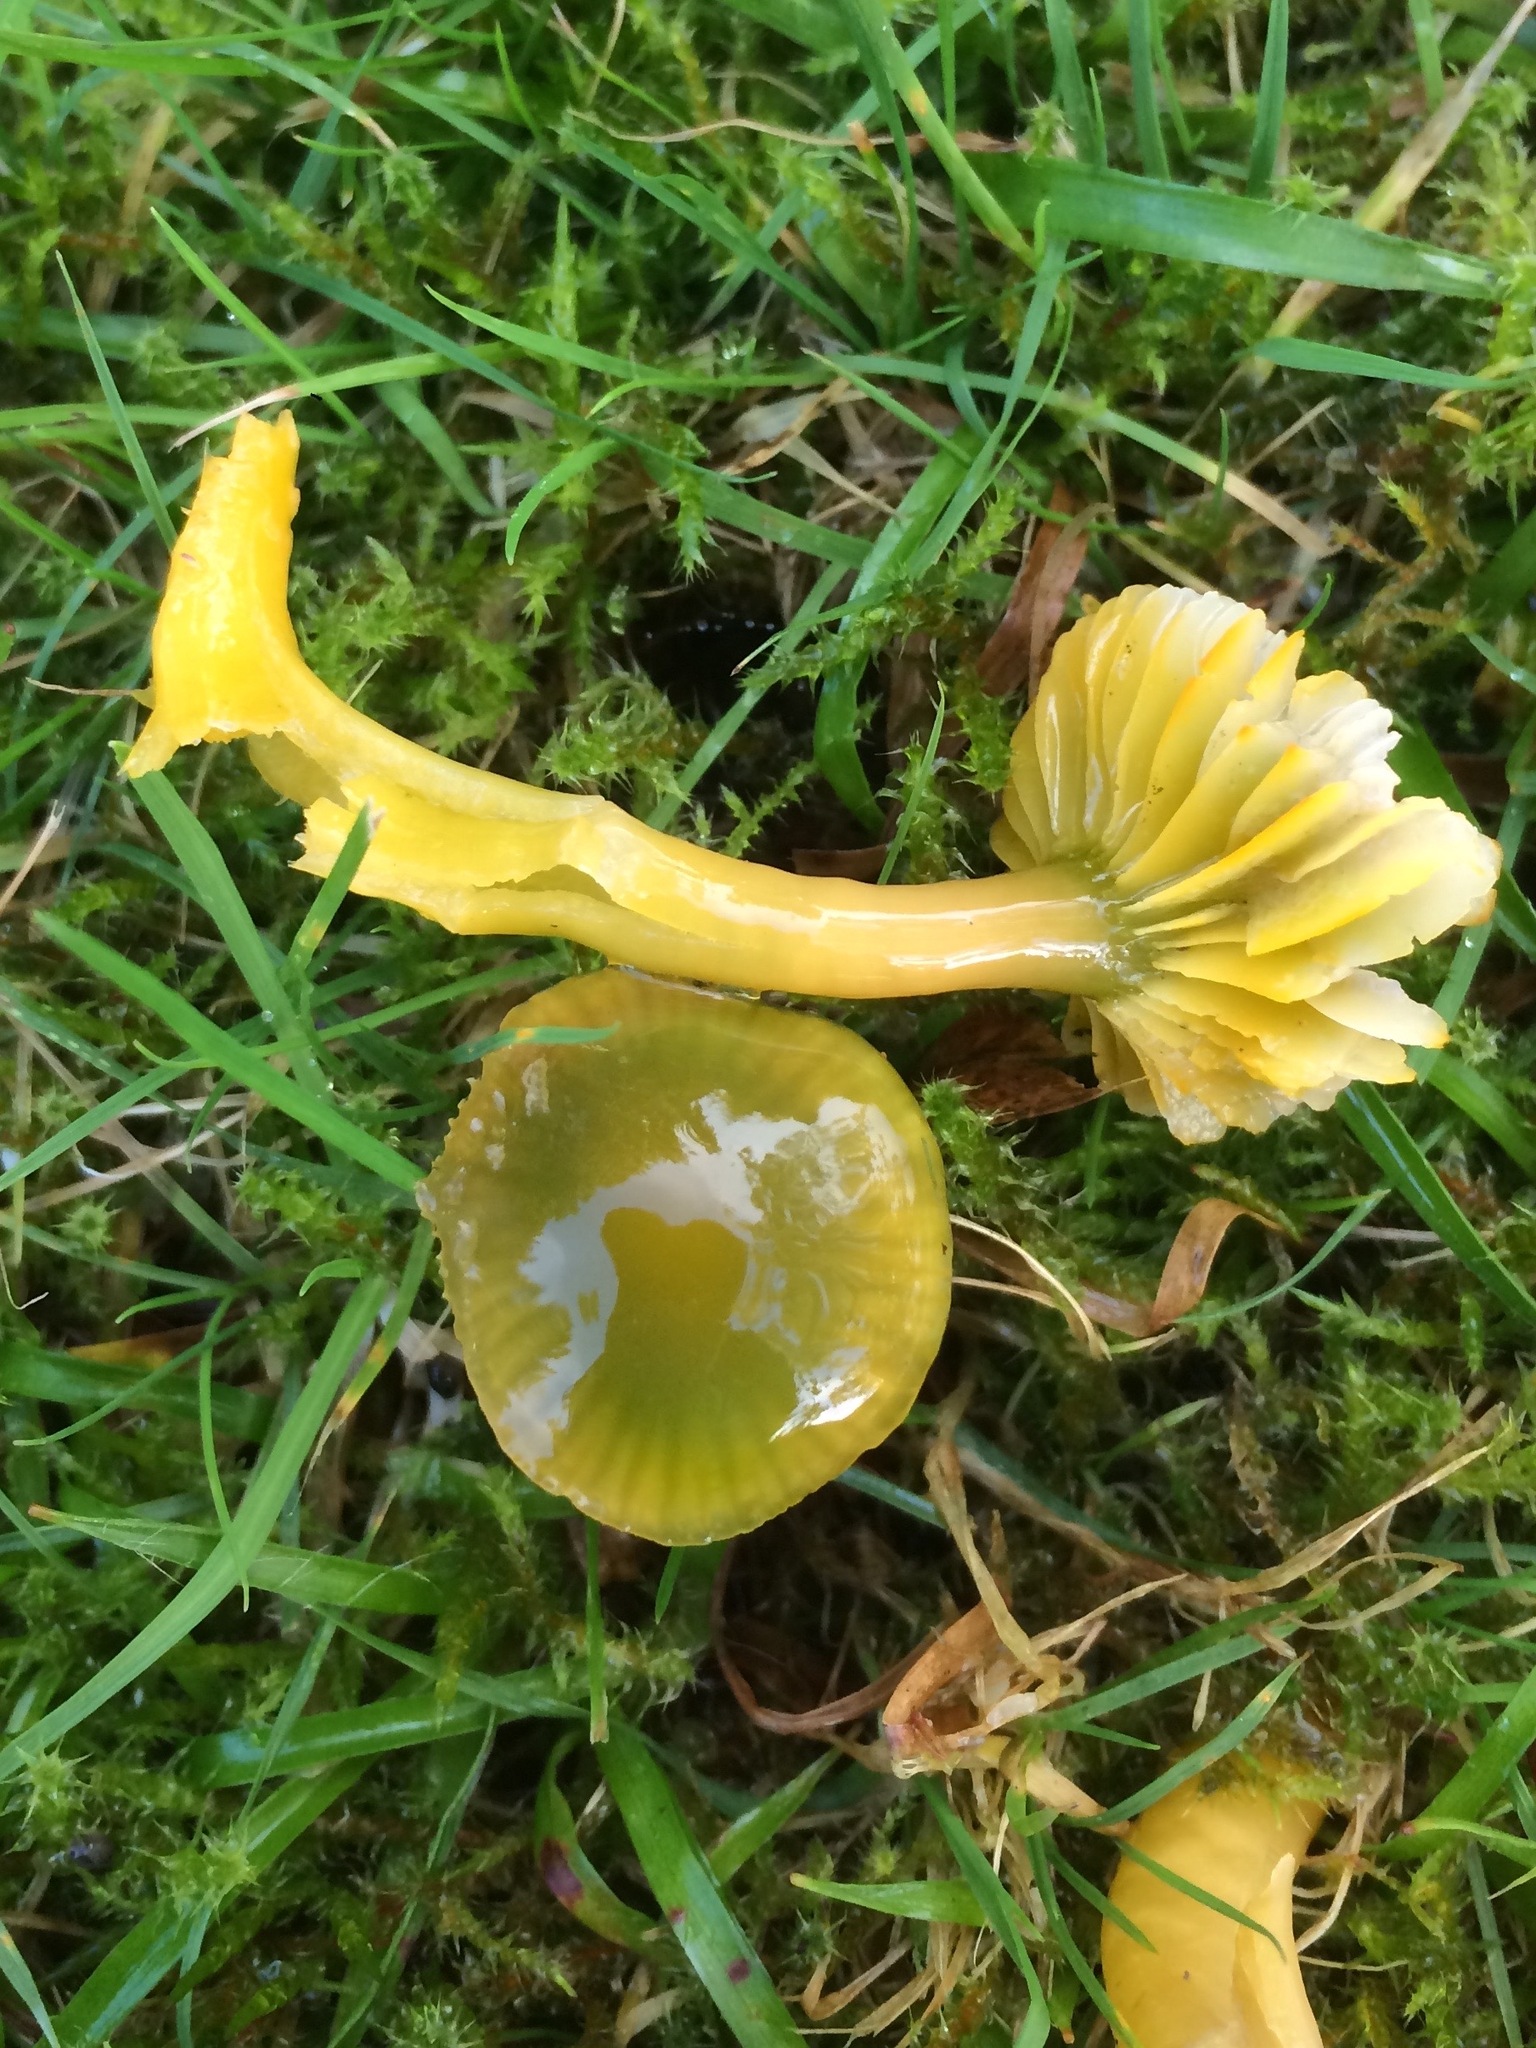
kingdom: Fungi
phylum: Basidiomycota
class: Agaricomycetes
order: Agaricales
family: Hygrophoraceae
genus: Gliophorus
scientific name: Gliophorus psittacinus
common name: Parrot wax-cap
